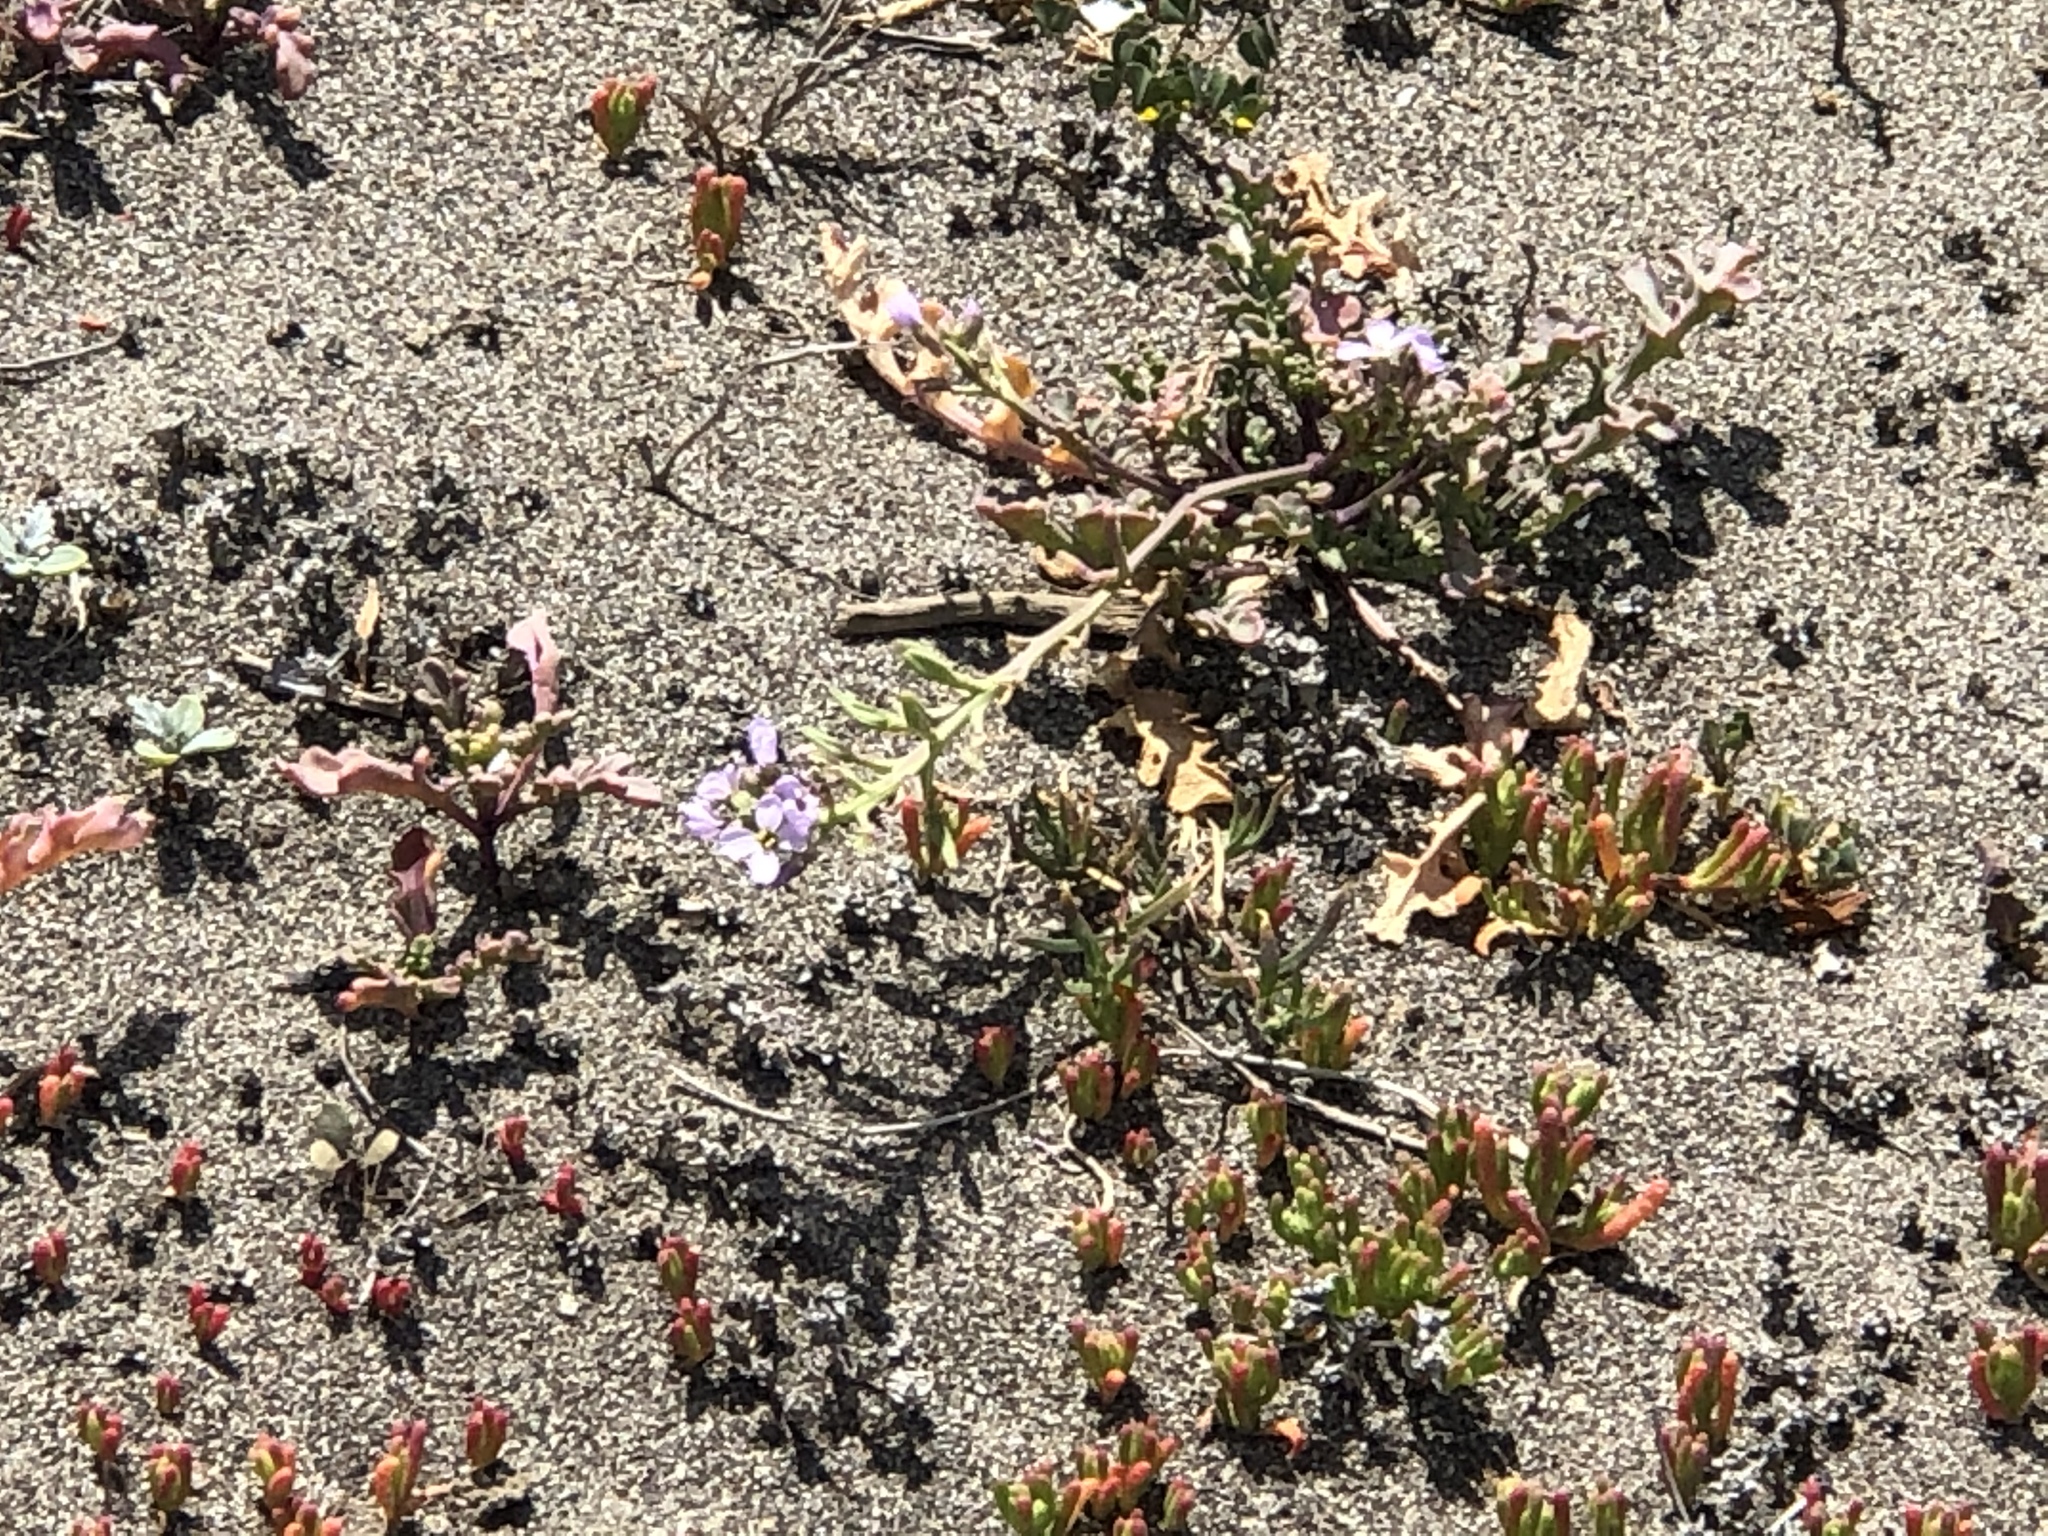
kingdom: Plantae
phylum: Tracheophyta
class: Magnoliopsida
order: Brassicales
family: Brassicaceae
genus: Cakile
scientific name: Cakile maritima
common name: Sea rocket
